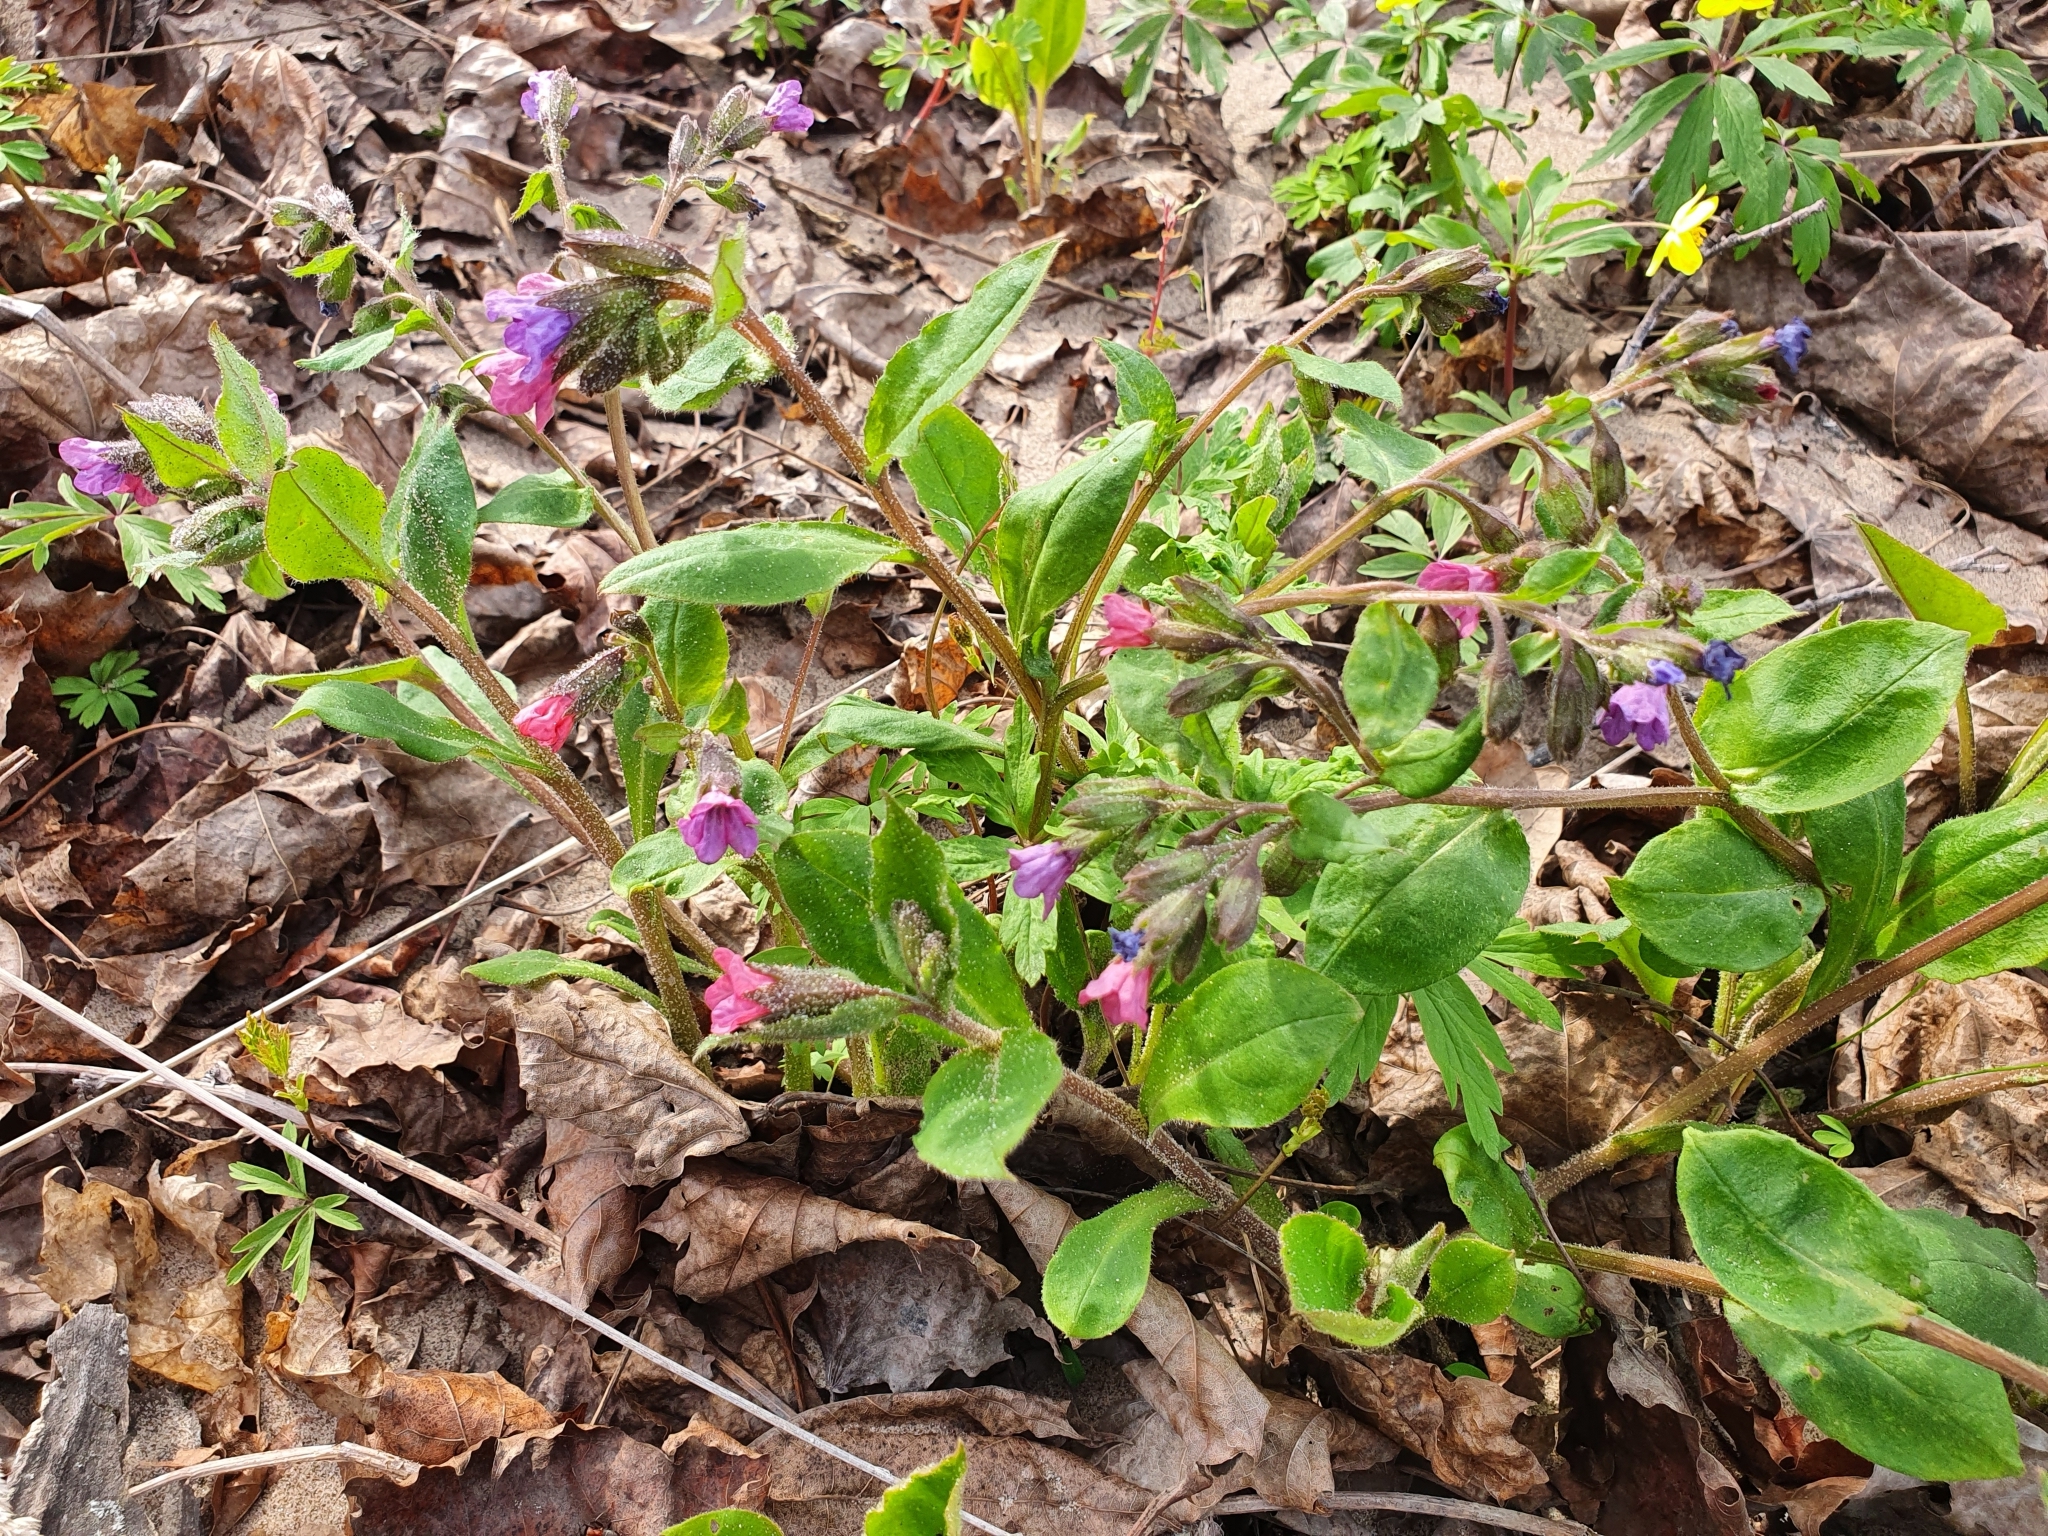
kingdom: Plantae
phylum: Tracheophyta
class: Magnoliopsida
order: Boraginales
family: Boraginaceae
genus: Pulmonaria
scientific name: Pulmonaria obscura
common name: Suffolk lungwort
